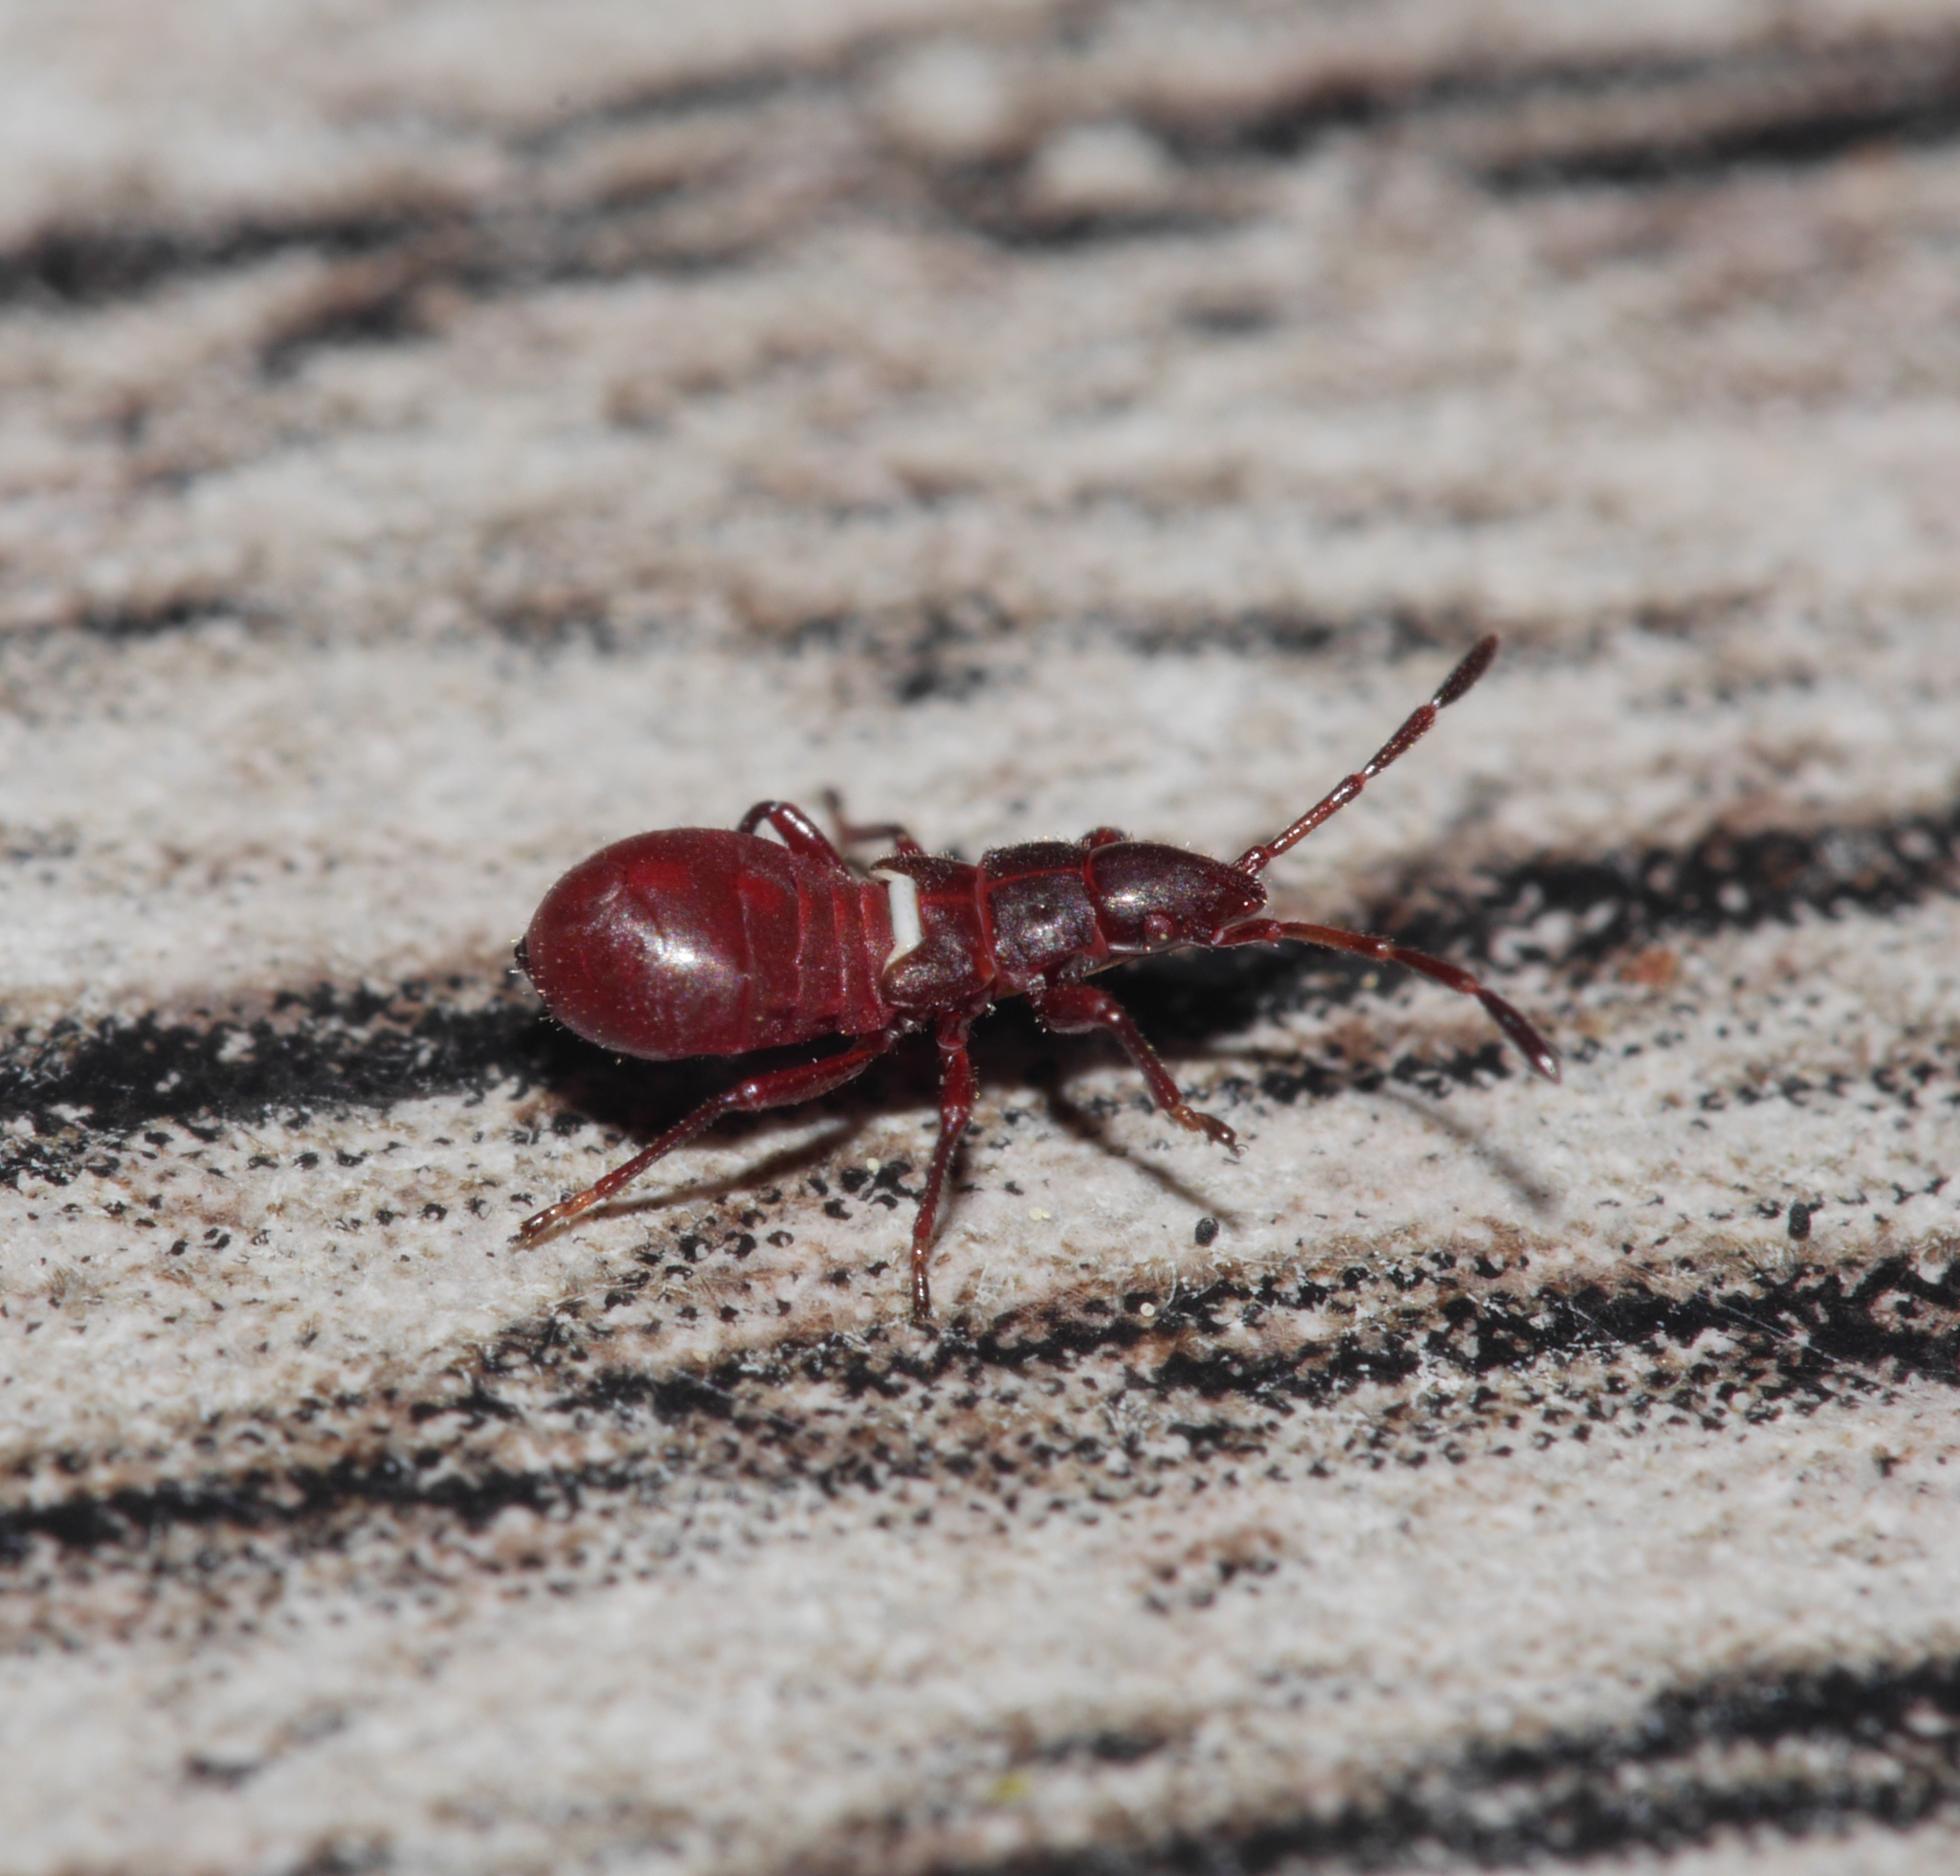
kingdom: Animalia
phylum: Arthropoda
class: Insecta
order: Hemiptera
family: Oxycarenidae
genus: Oxycarenus
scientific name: Oxycarenus lavaterae
